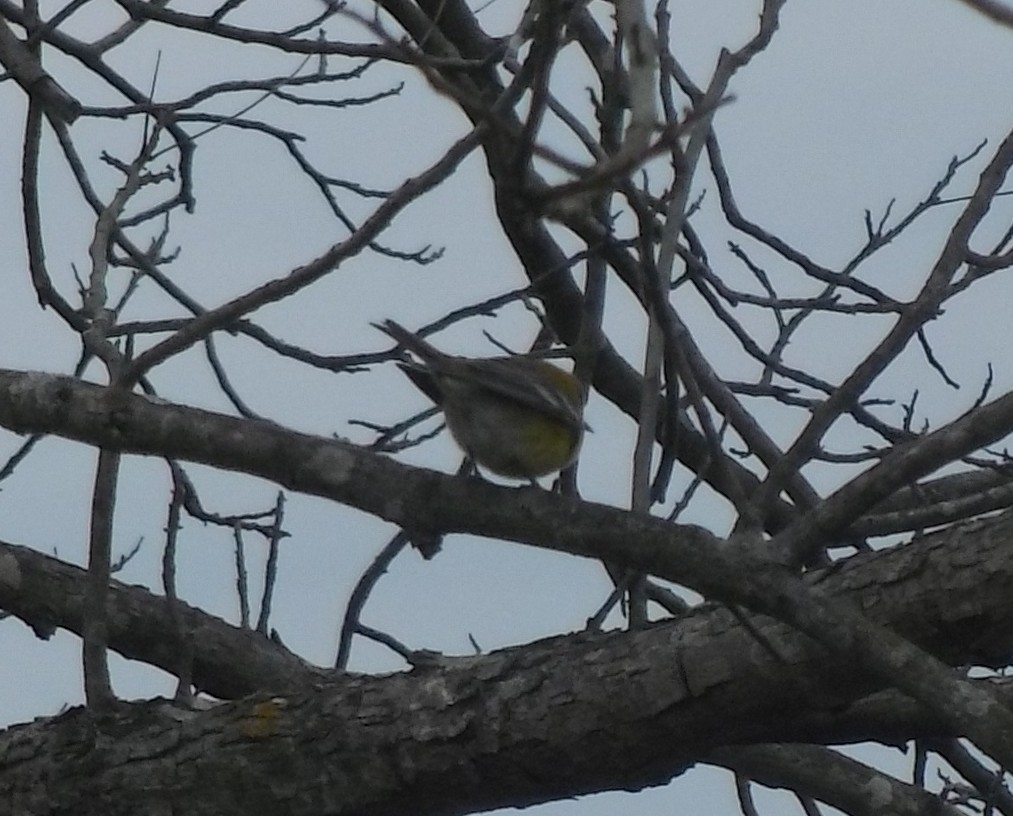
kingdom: Animalia
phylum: Chordata
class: Aves
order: Passeriformes
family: Parulidae
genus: Setophaga
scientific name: Setophaga pinus
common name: Pine warbler
